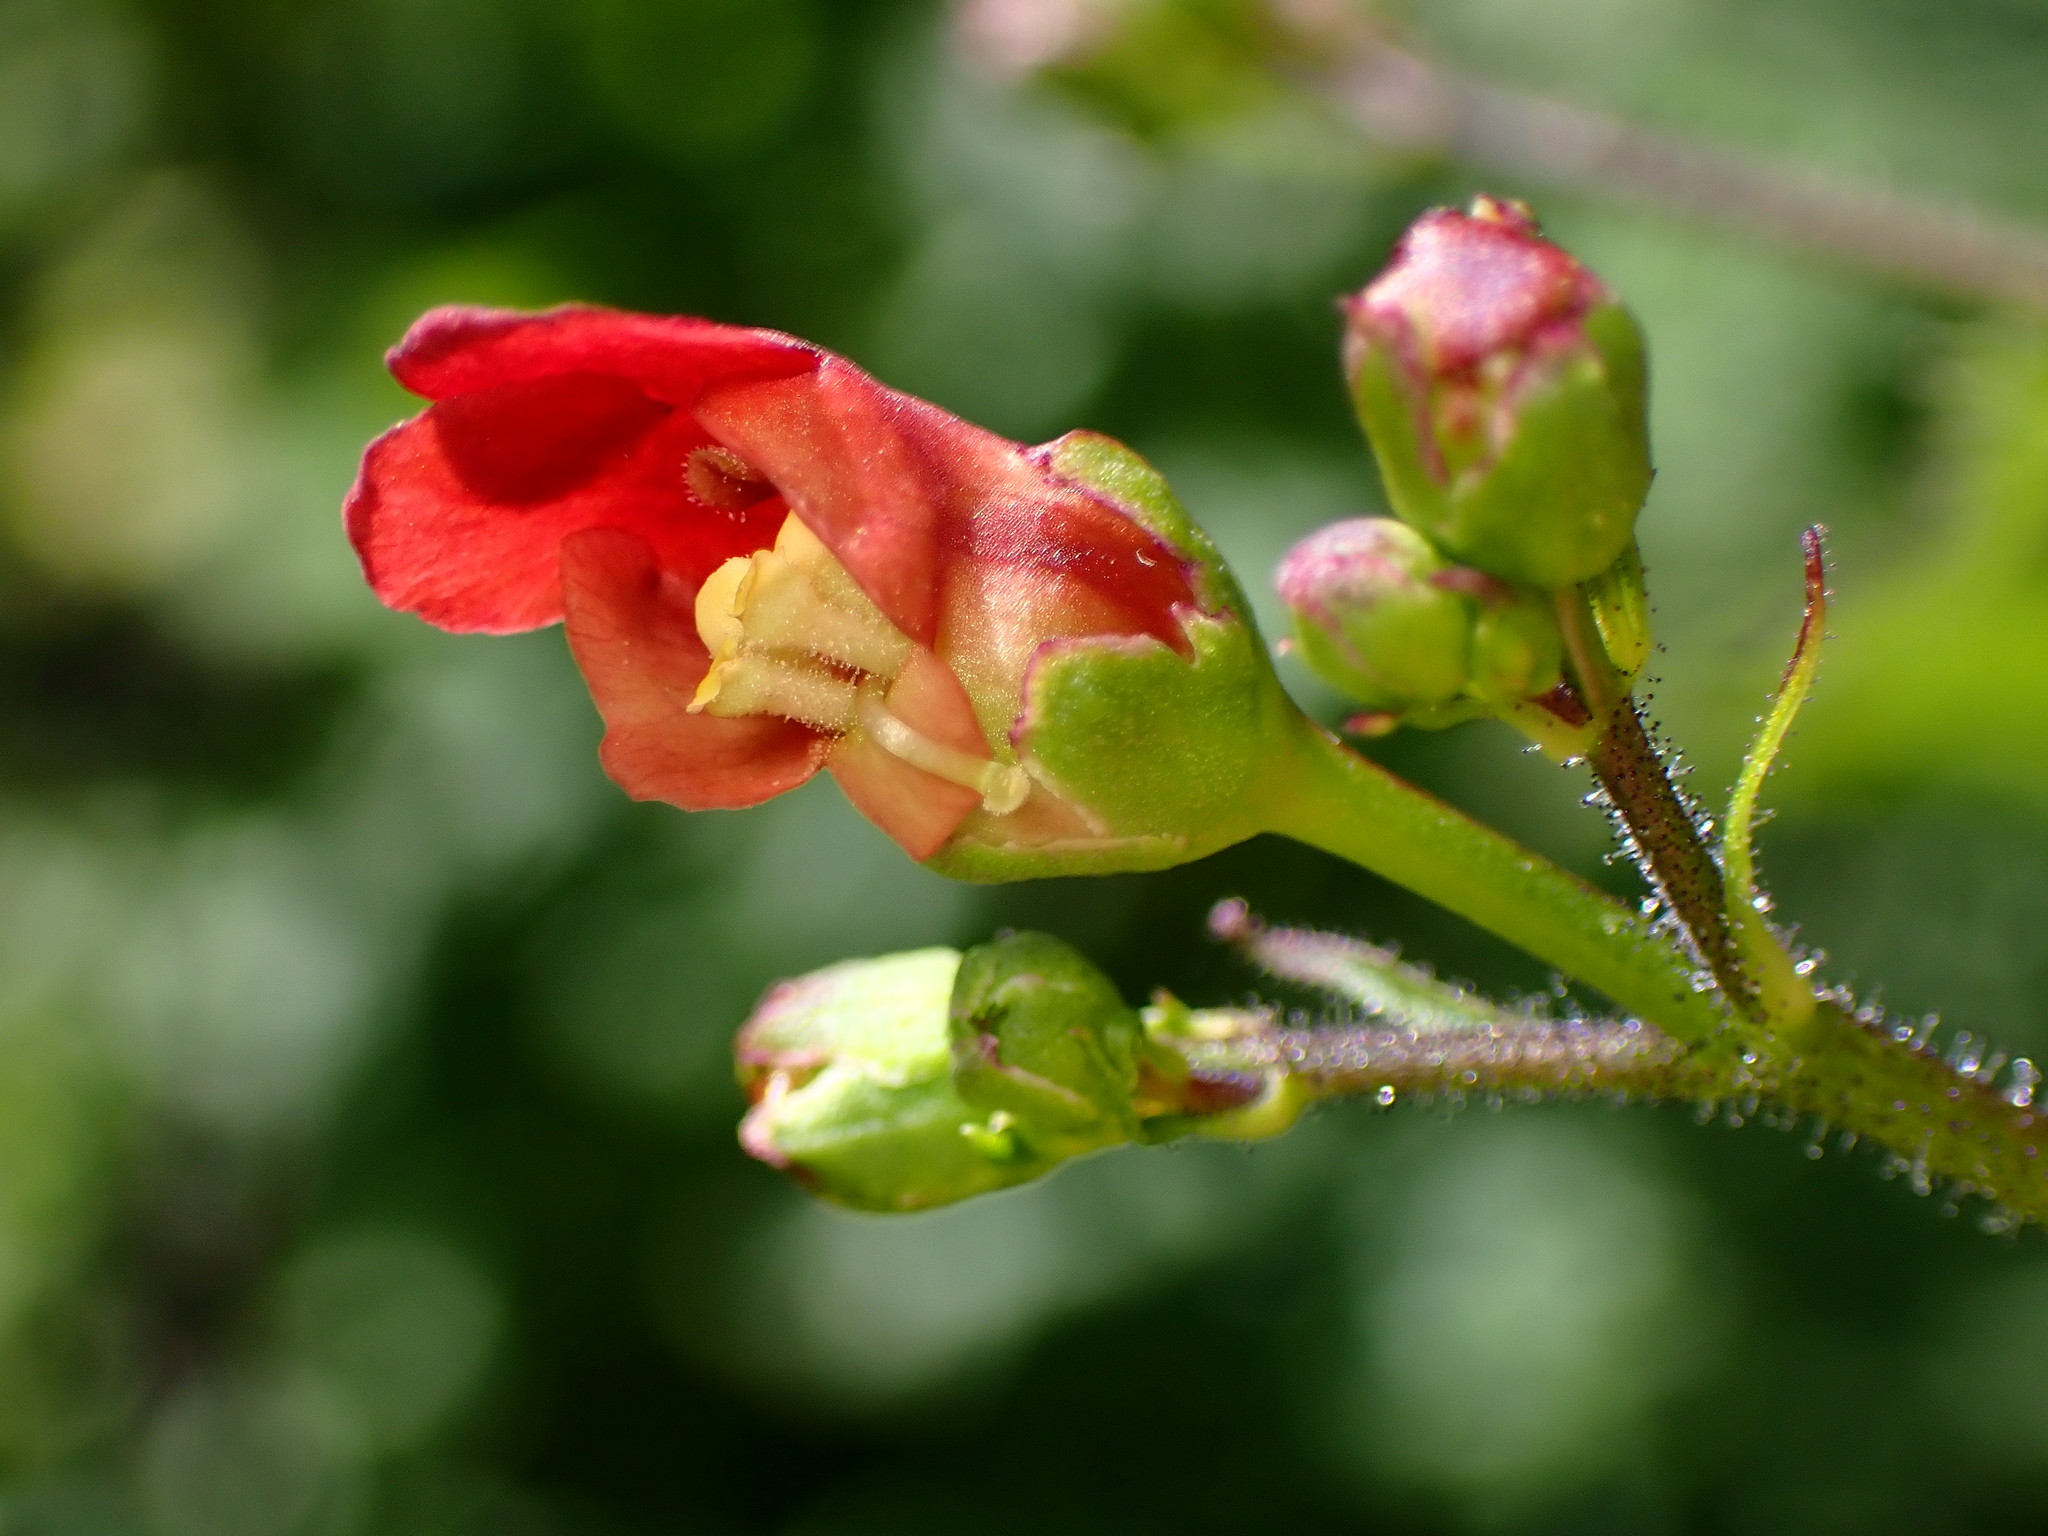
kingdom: Plantae
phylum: Tracheophyta
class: Magnoliopsida
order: Lamiales
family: Scrophulariaceae
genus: Scrophularia
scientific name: Scrophularia californica
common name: California figwort
